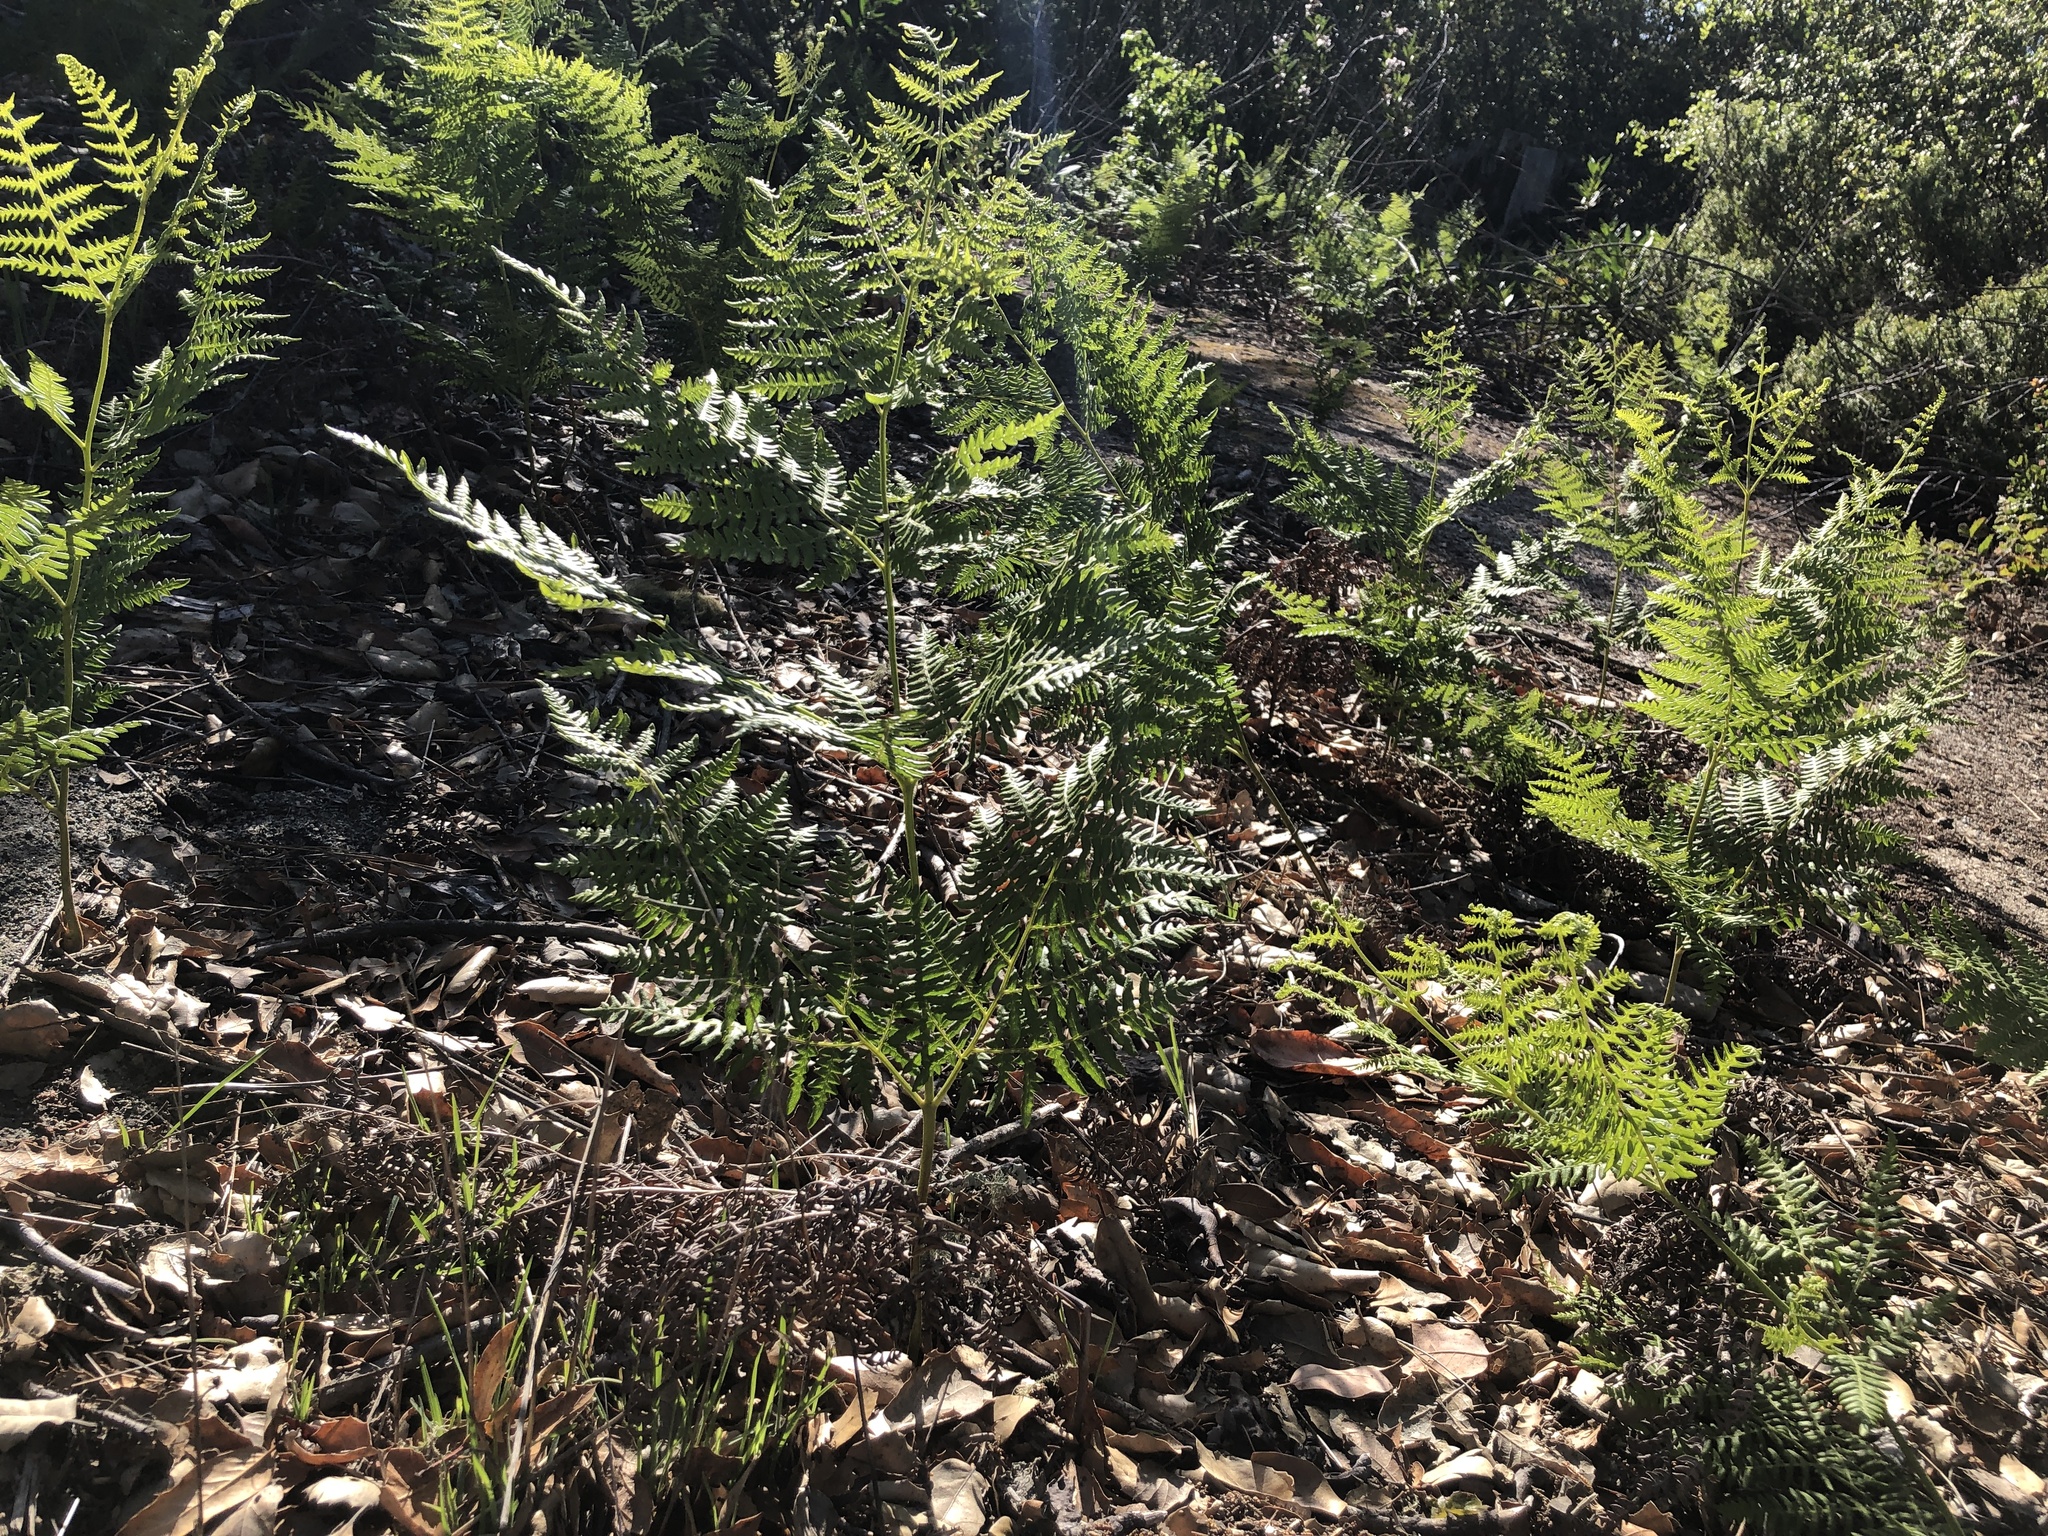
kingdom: Plantae
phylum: Tracheophyta
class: Polypodiopsida
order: Polypodiales
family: Dennstaedtiaceae
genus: Pteridium
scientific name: Pteridium aquilinum
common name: Bracken
